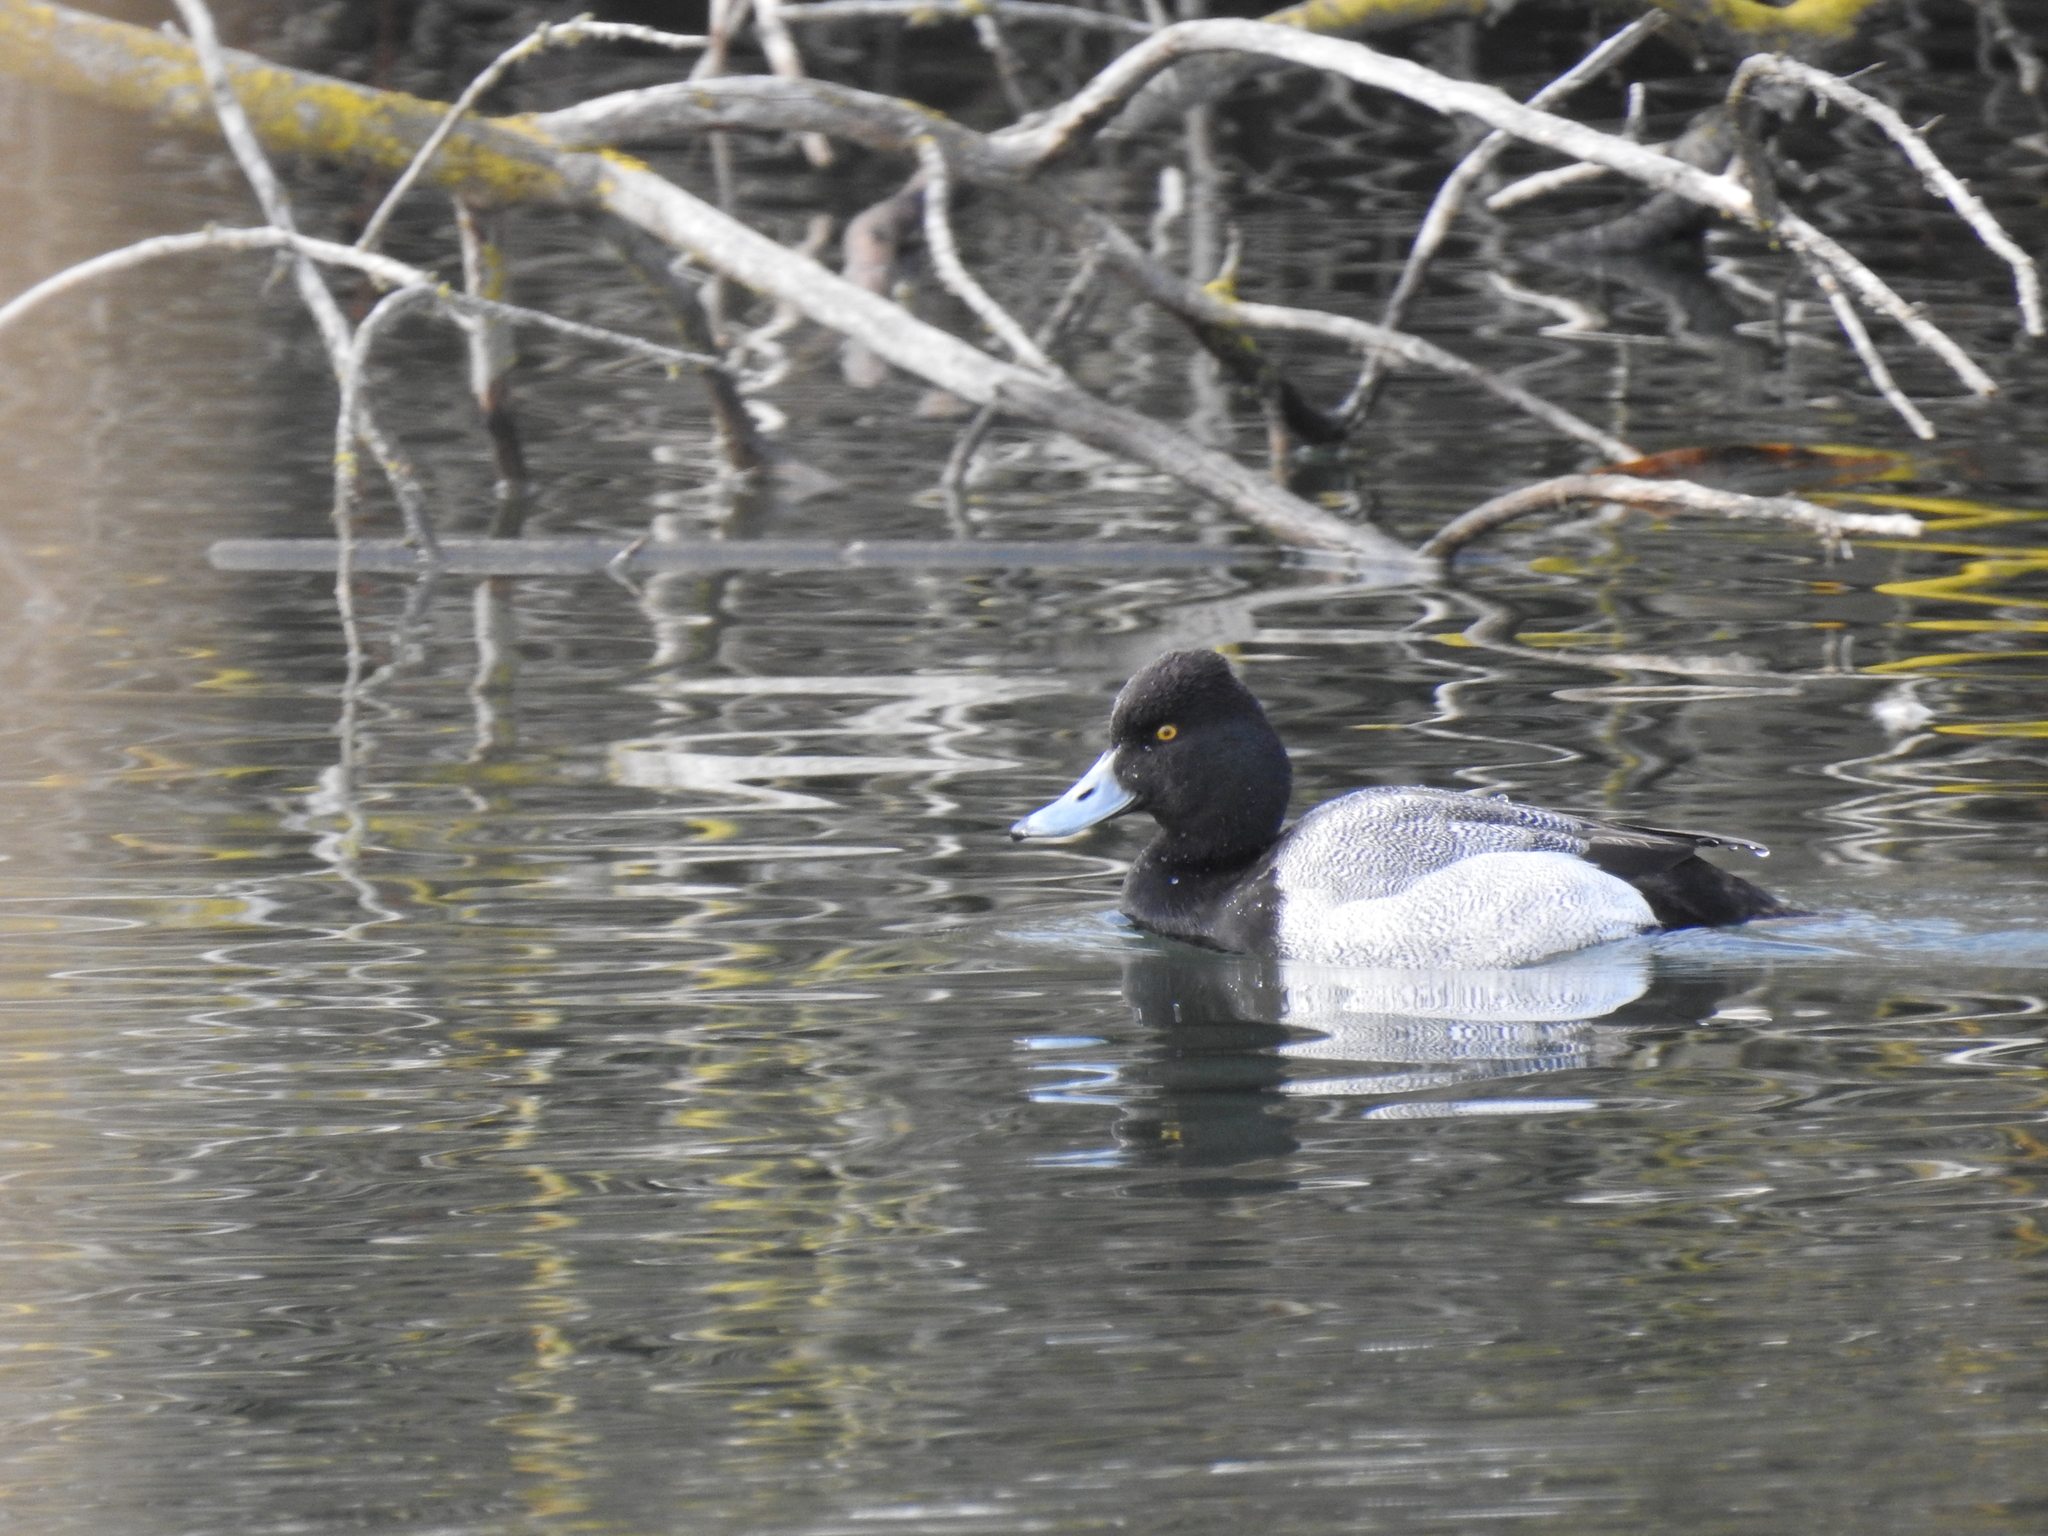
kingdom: Animalia
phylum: Chordata
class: Aves
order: Anseriformes
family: Anatidae
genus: Aythya
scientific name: Aythya affinis
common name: Lesser scaup
